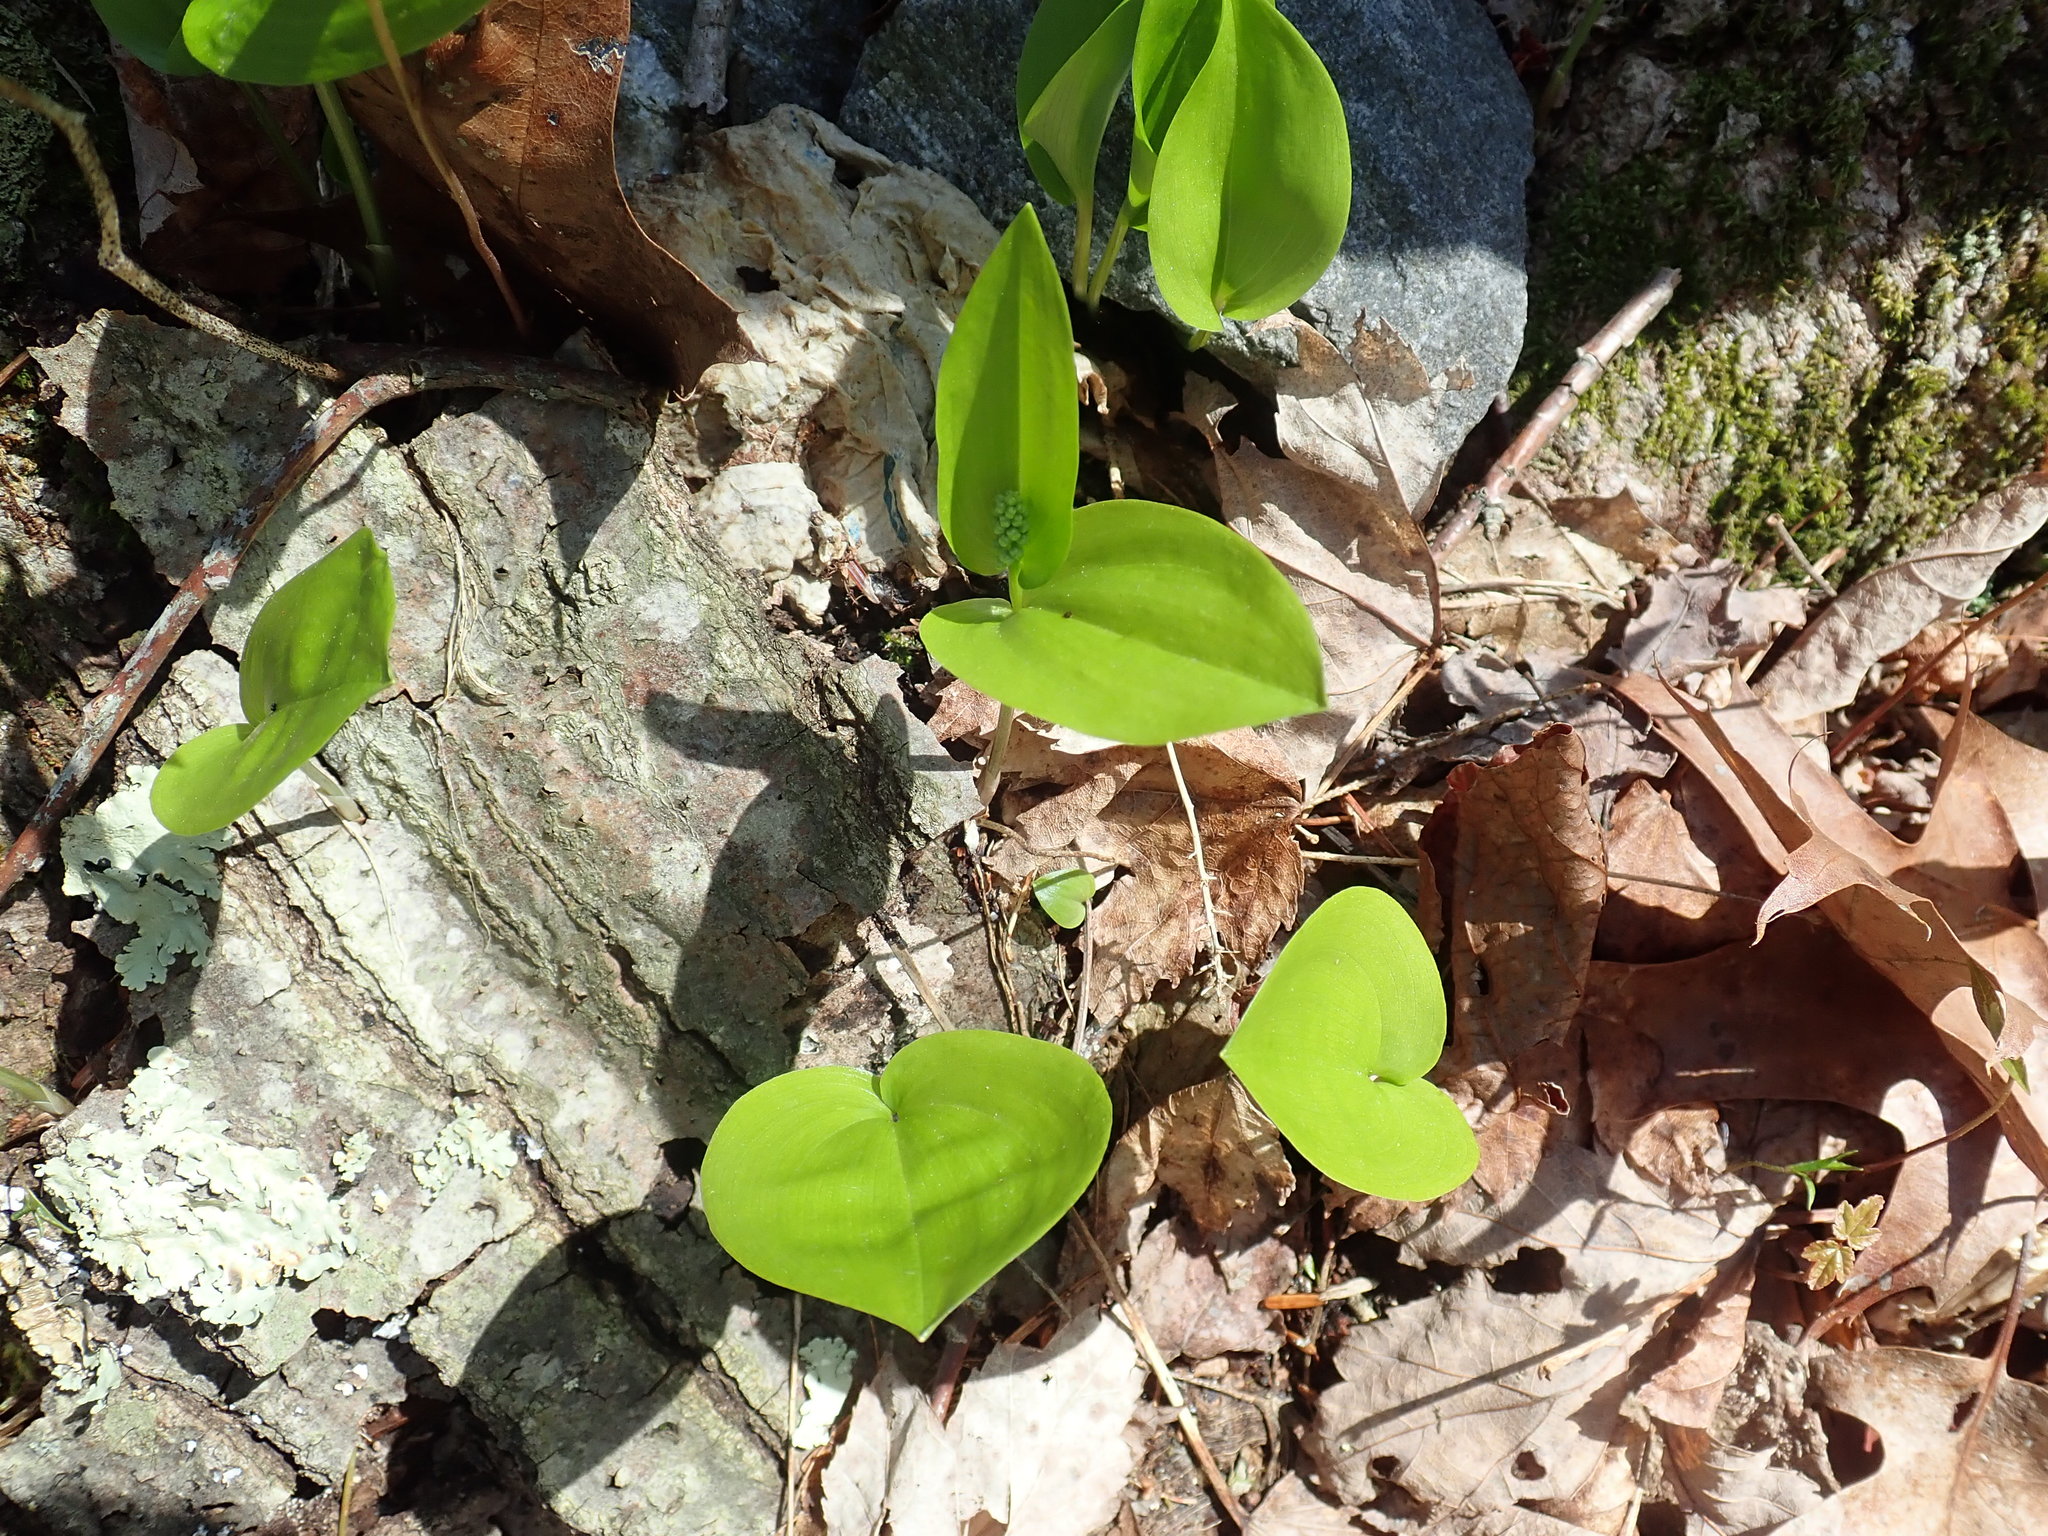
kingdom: Plantae
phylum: Tracheophyta
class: Liliopsida
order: Asparagales
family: Asparagaceae
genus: Maianthemum
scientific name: Maianthemum canadense
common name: False lily-of-the-valley
